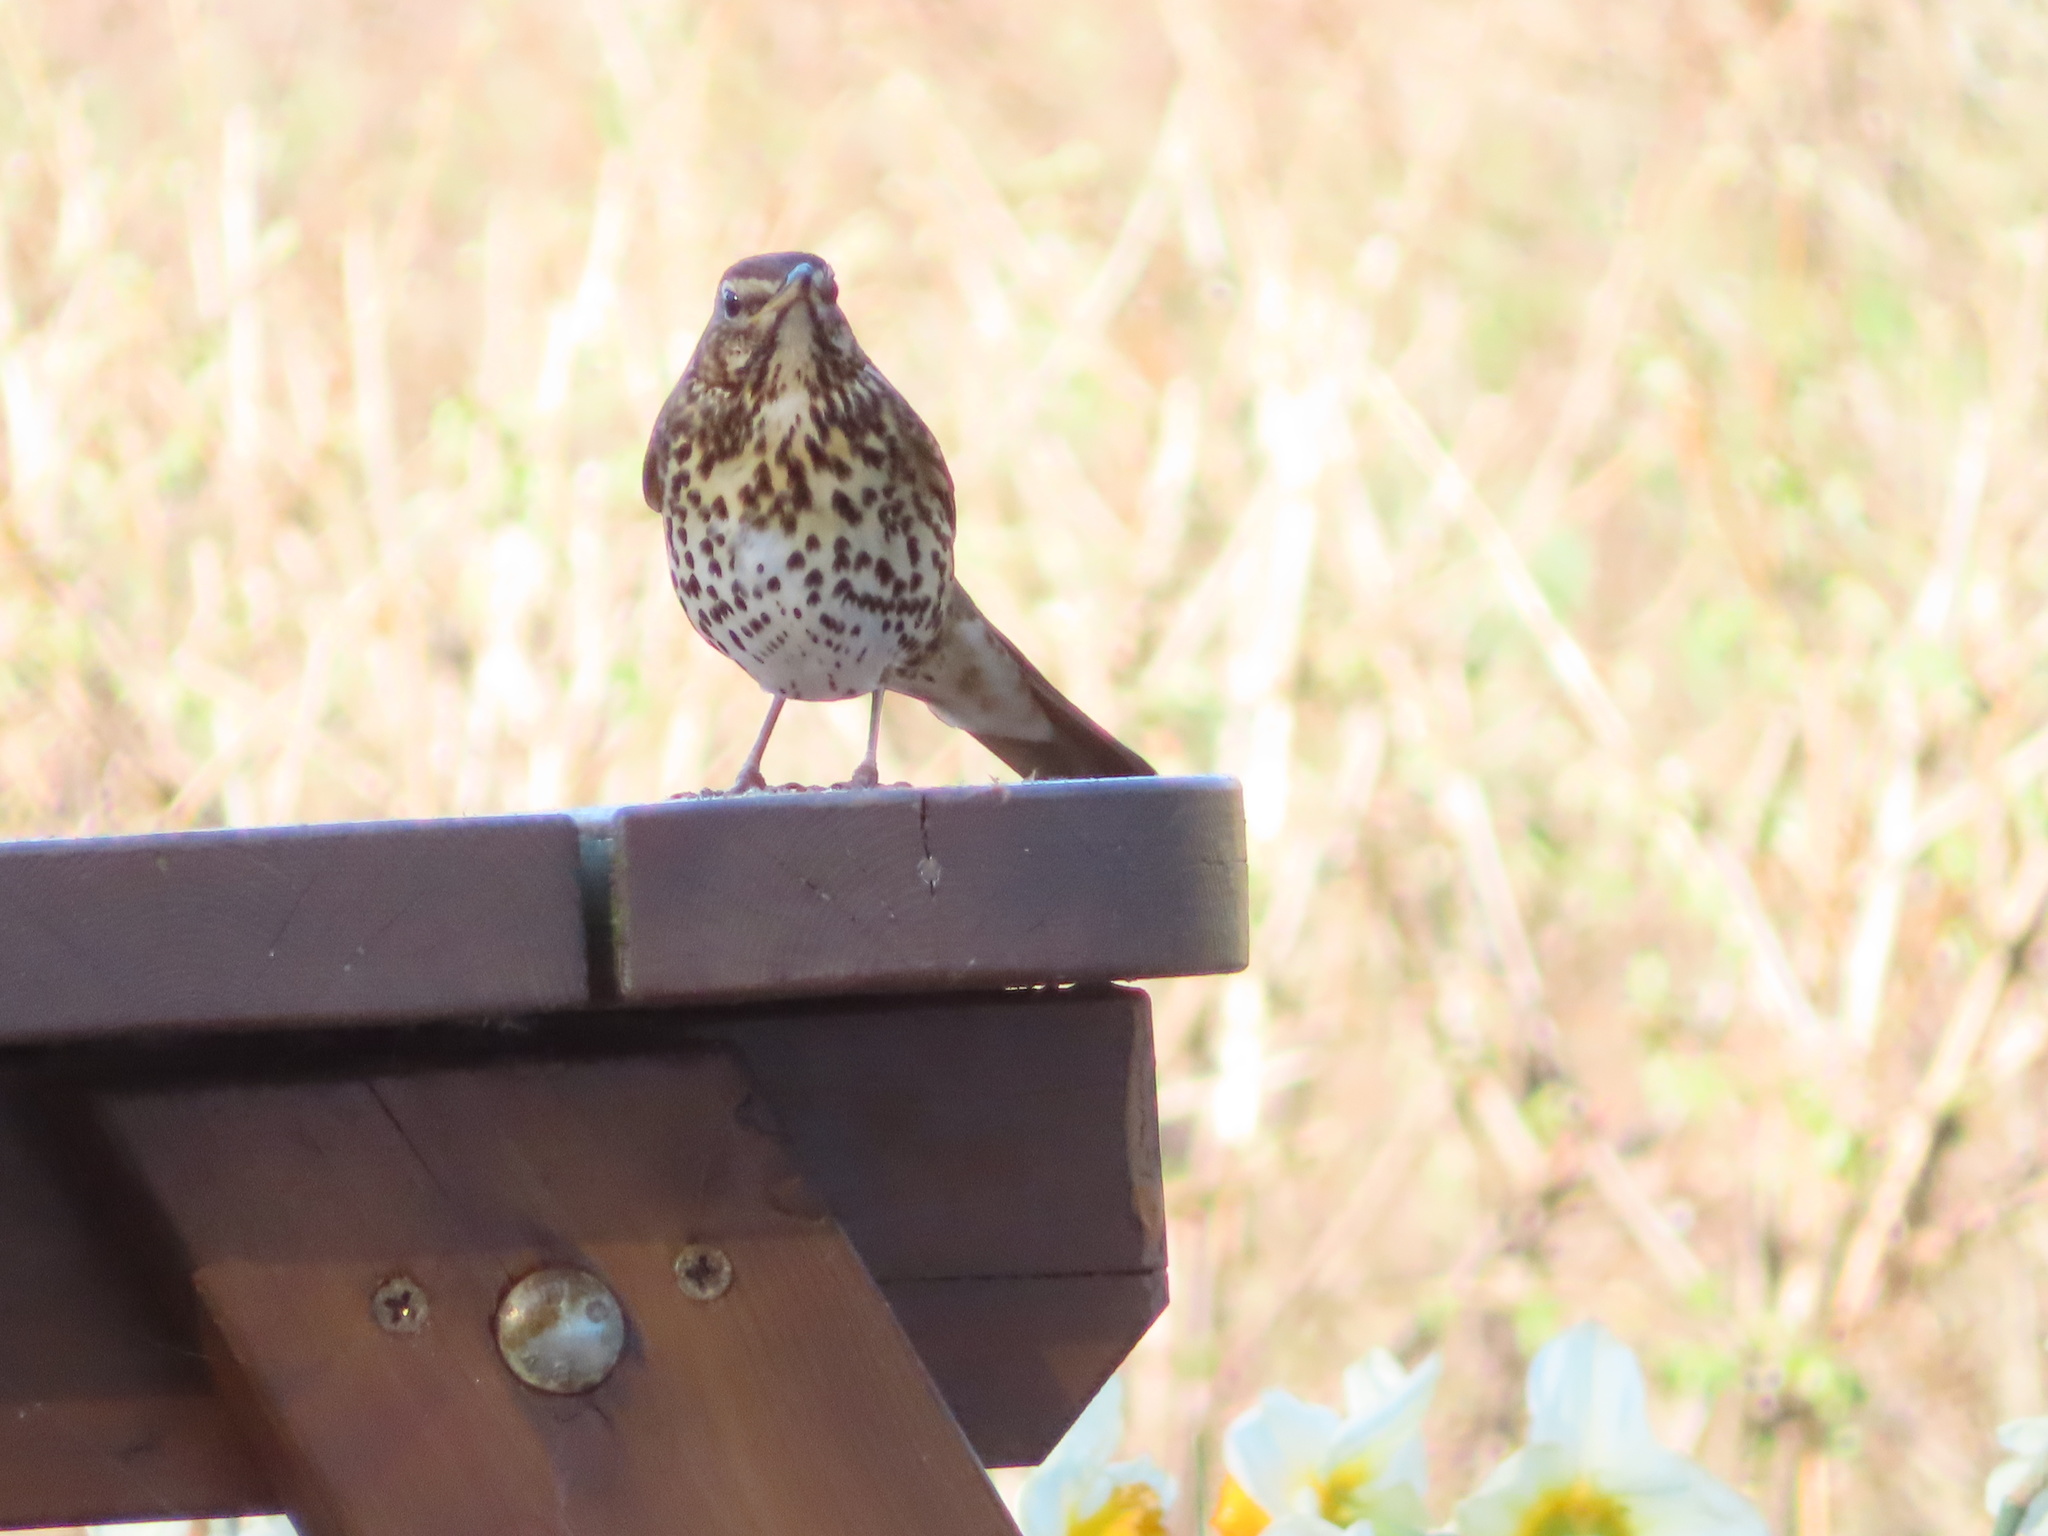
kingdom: Animalia
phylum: Chordata
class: Aves
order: Passeriformes
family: Turdidae
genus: Turdus
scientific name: Turdus philomelos
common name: Song thrush
